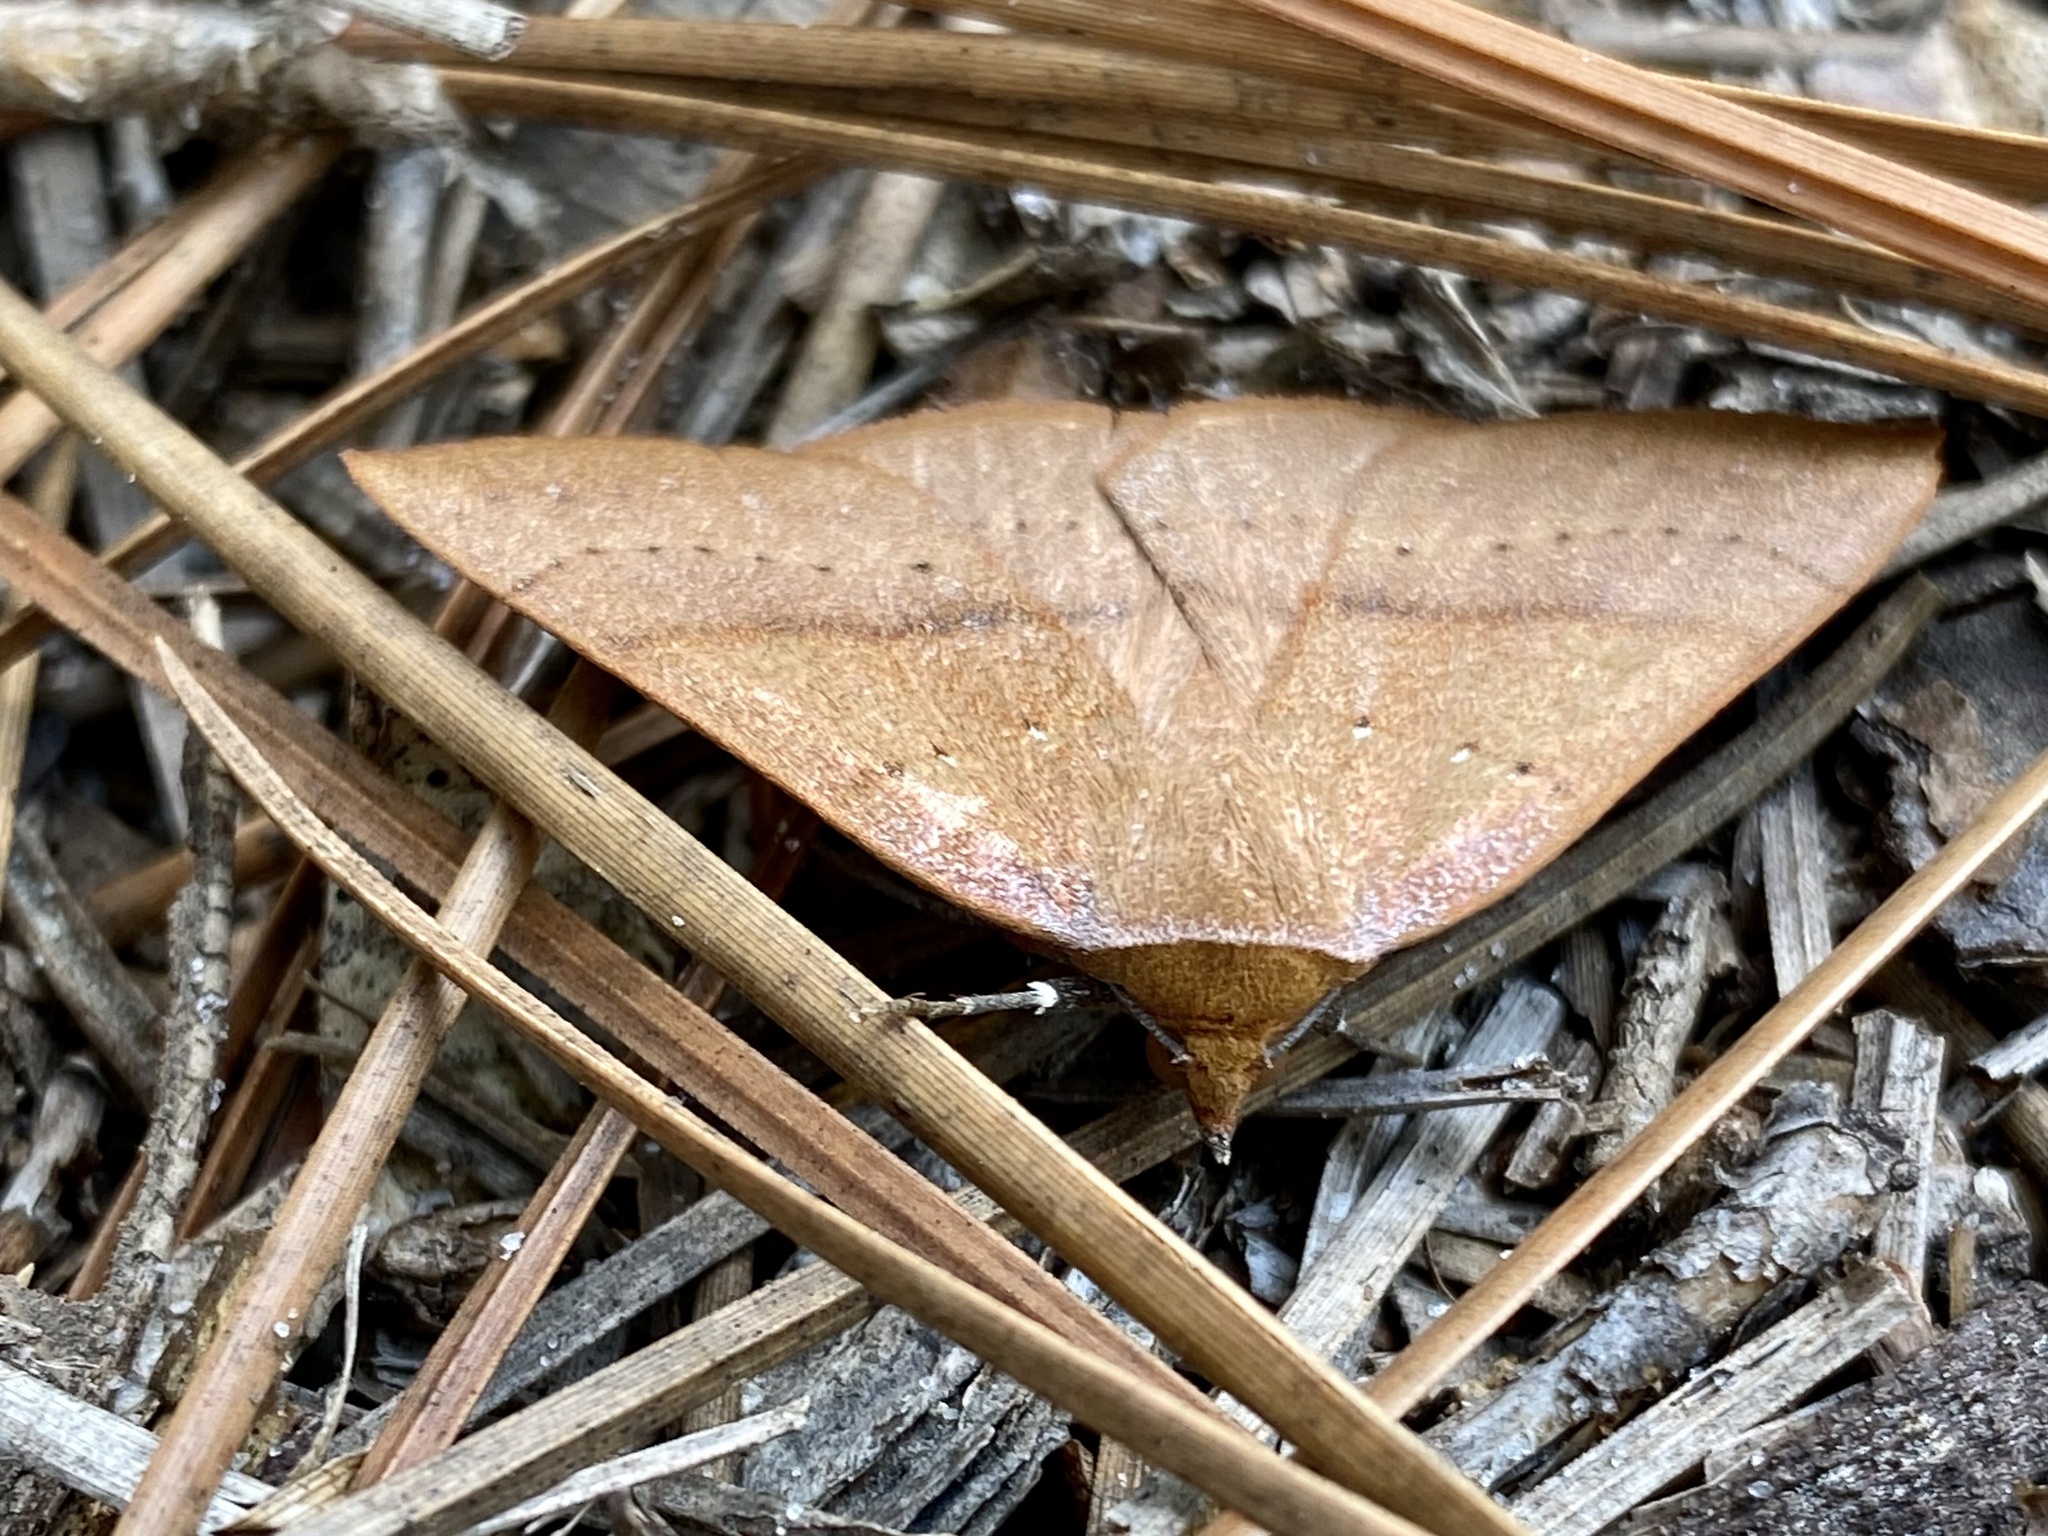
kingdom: Animalia
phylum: Arthropoda
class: Insecta
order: Lepidoptera
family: Erebidae
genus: Panopoda
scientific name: Panopoda repanda
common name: Orange panopoda
